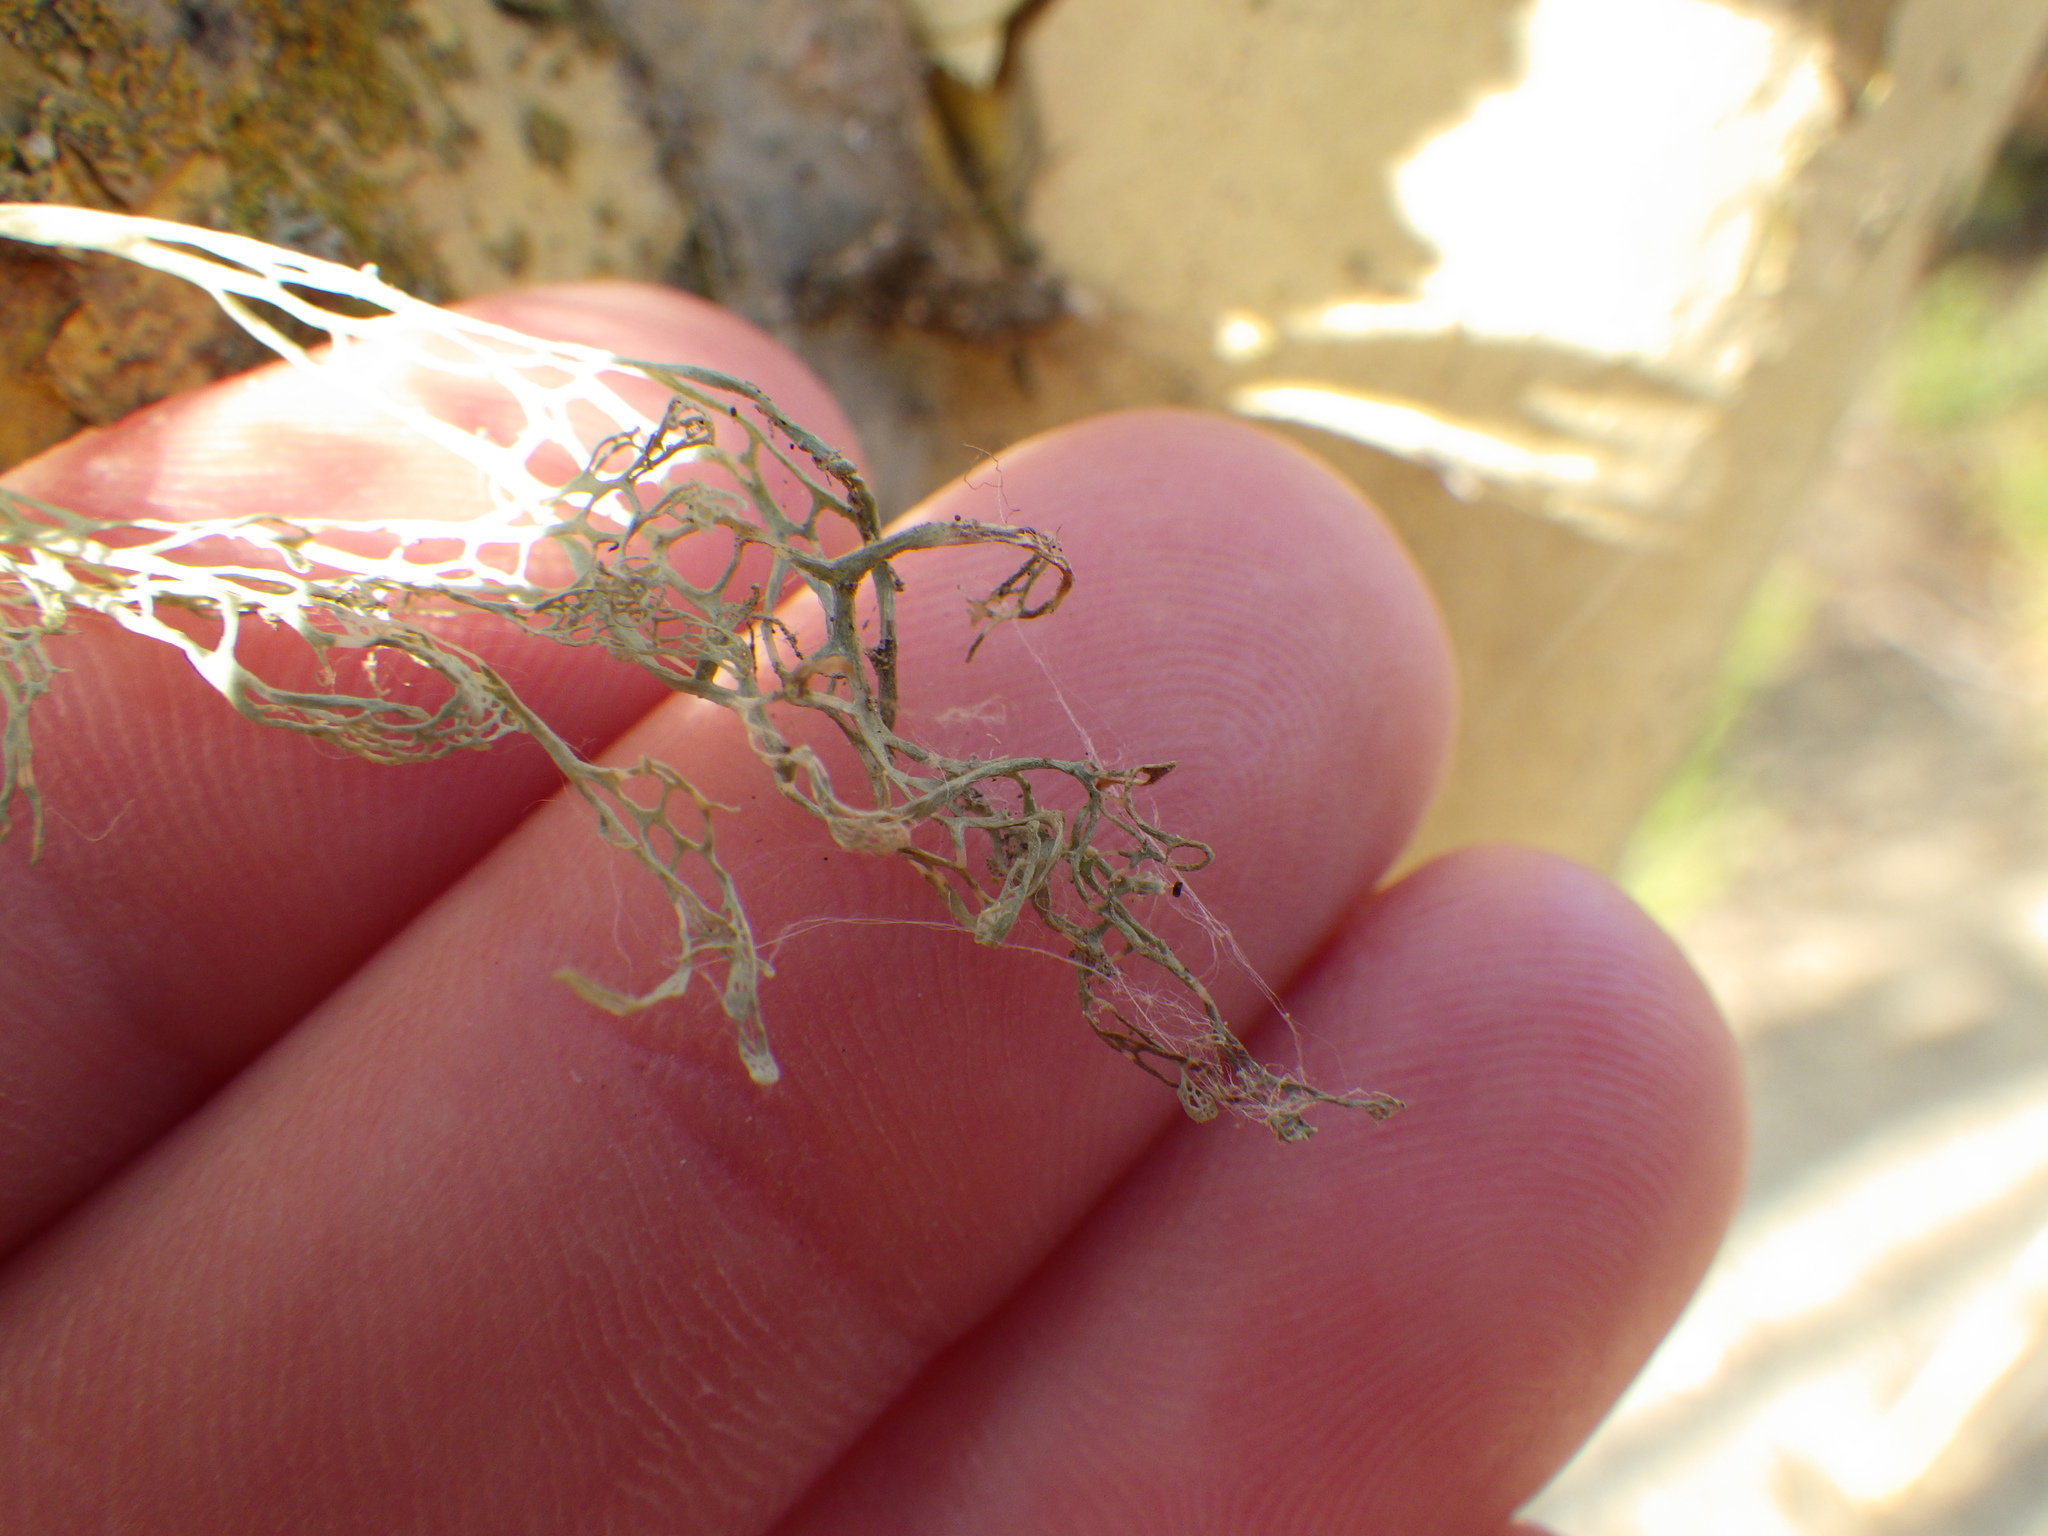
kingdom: Fungi
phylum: Ascomycota
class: Lecanoromycetes
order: Lecanorales
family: Ramalinaceae
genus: Ramalina
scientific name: Ramalina menziesii
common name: Lace lichen
